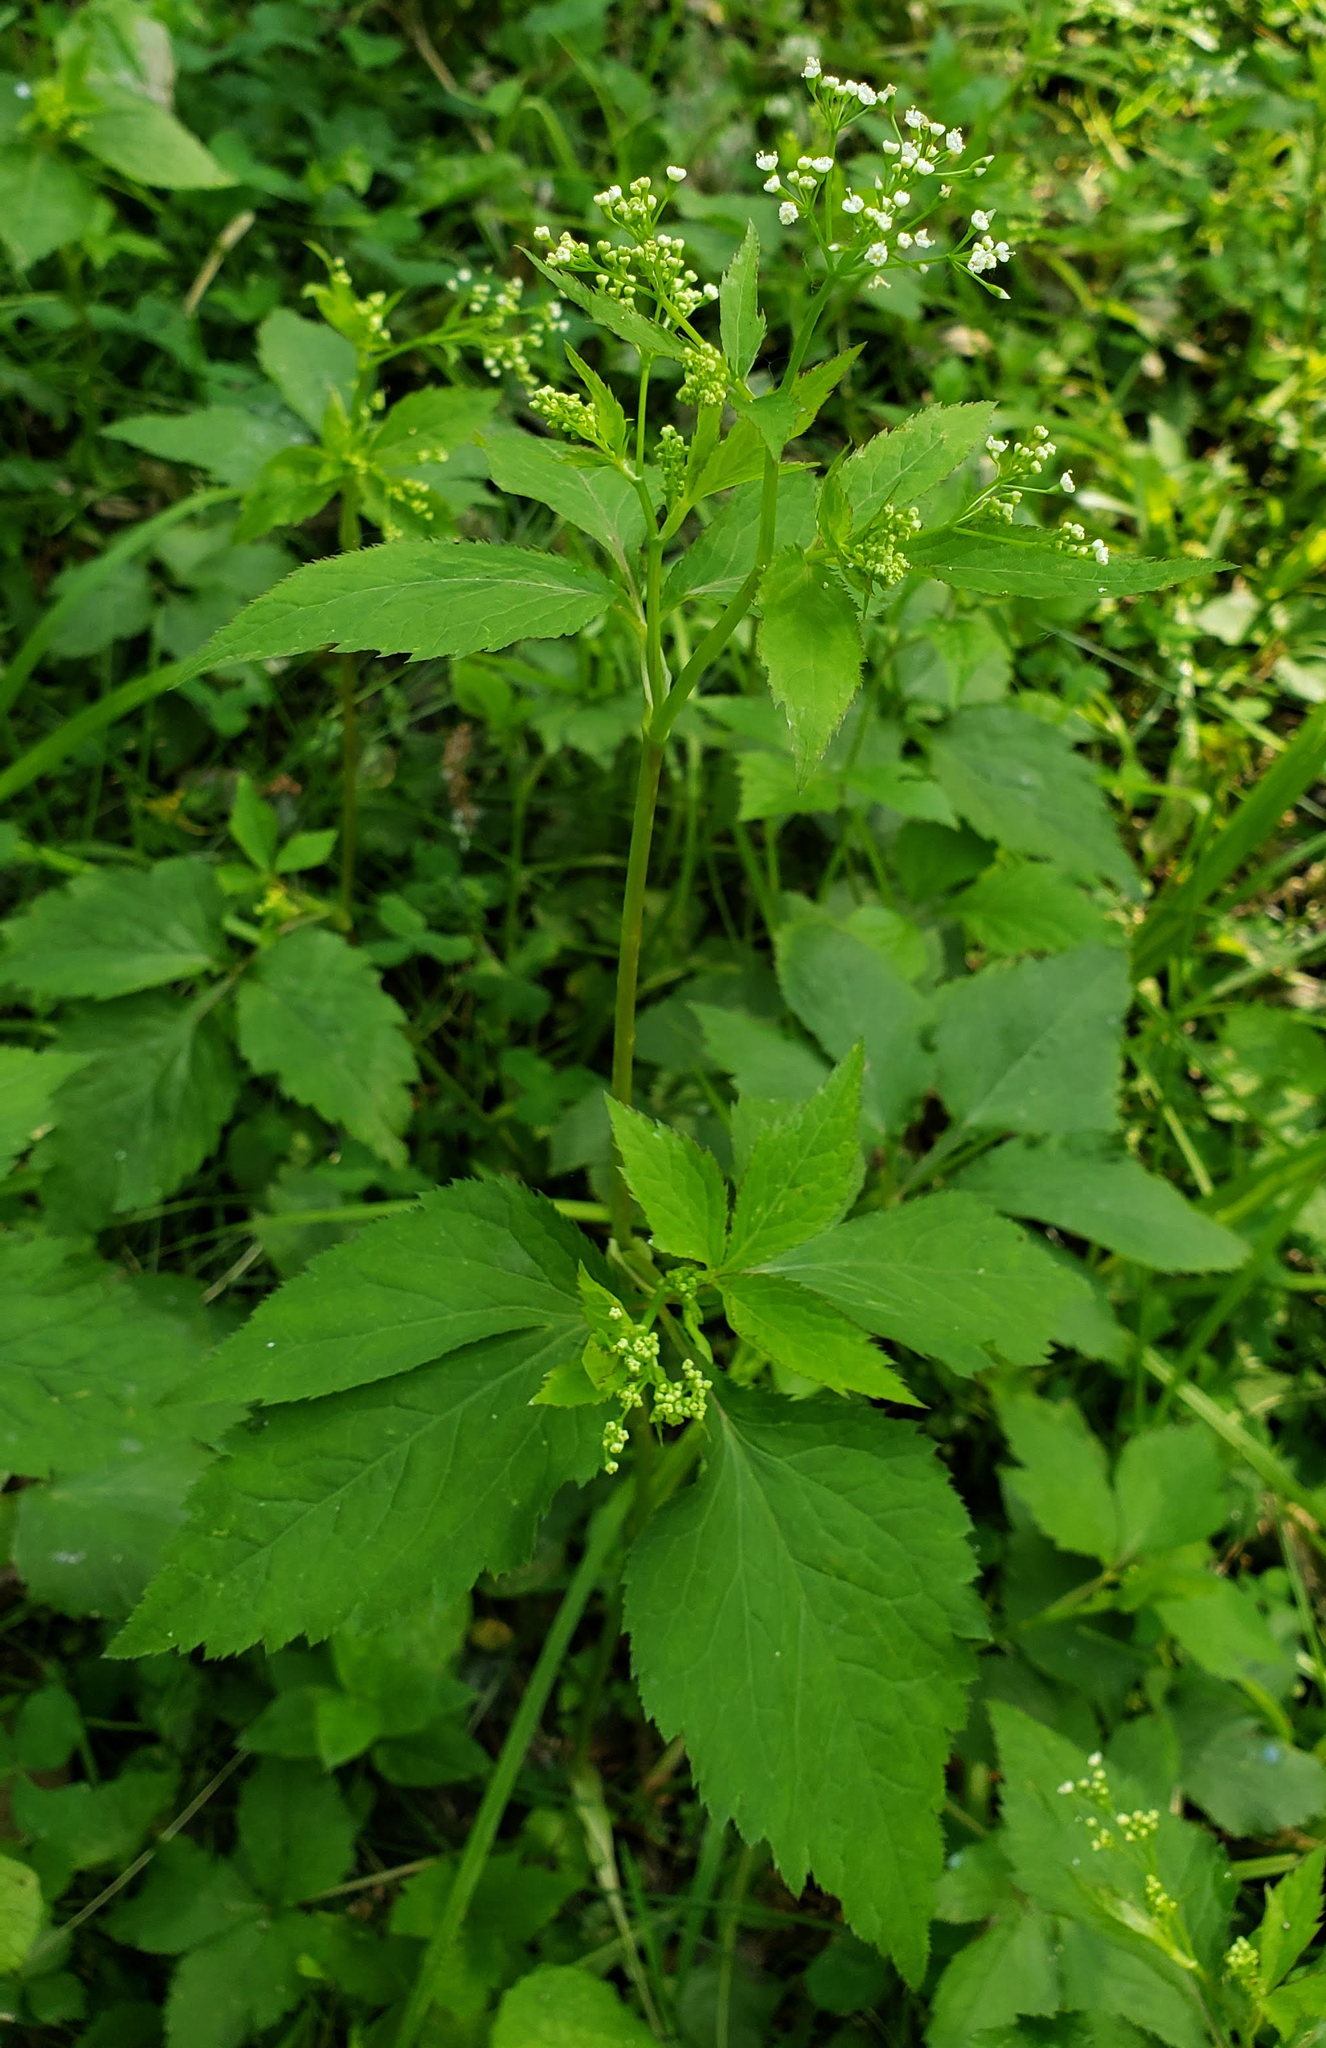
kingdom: Plantae
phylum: Tracheophyta
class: Magnoliopsida
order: Apiales
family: Apiaceae
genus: Cryptotaenia
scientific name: Cryptotaenia canadensis
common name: Honewort
